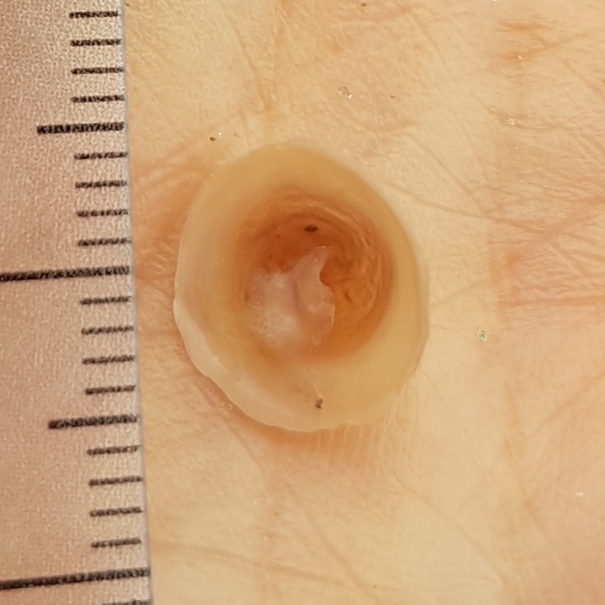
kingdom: Animalia
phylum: Mollusca
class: Gastropoda
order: Littorinimorpha
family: Calyptraeidae
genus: Calyptraea
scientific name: Calyptraea chinensis
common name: Chinaman's hat
